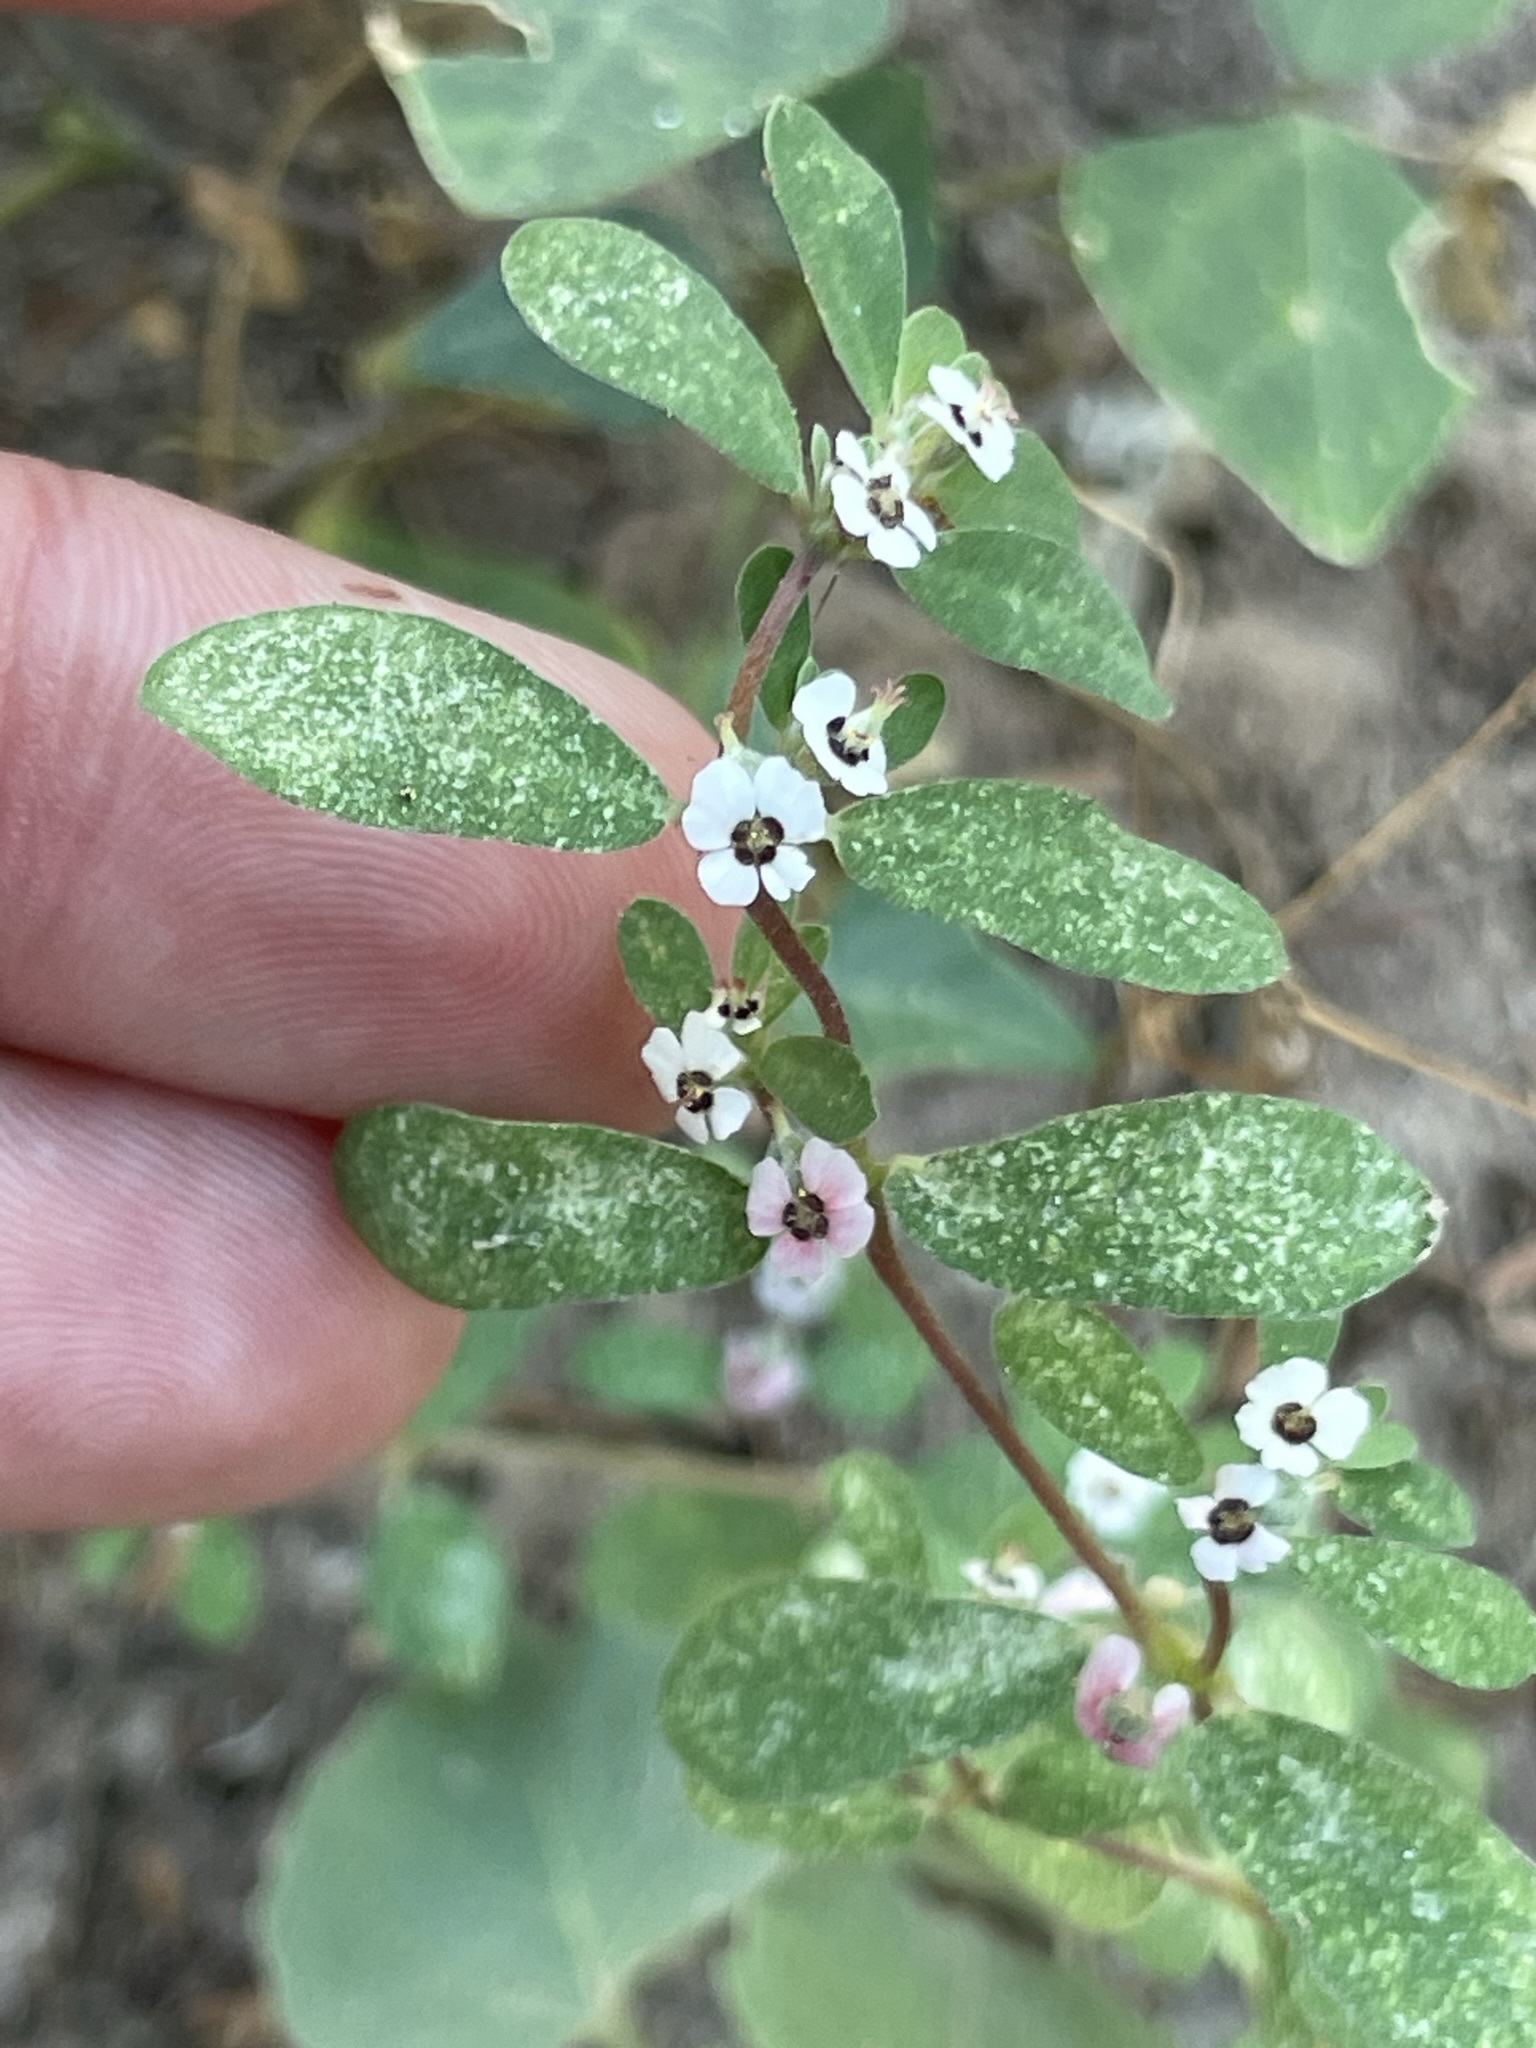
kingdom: Plantae
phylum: Tracheophyta
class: Magnoliopsida
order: Malpighiales
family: Euphorbiaceae
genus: Euphorbia
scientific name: Euphorbia pediculifera
